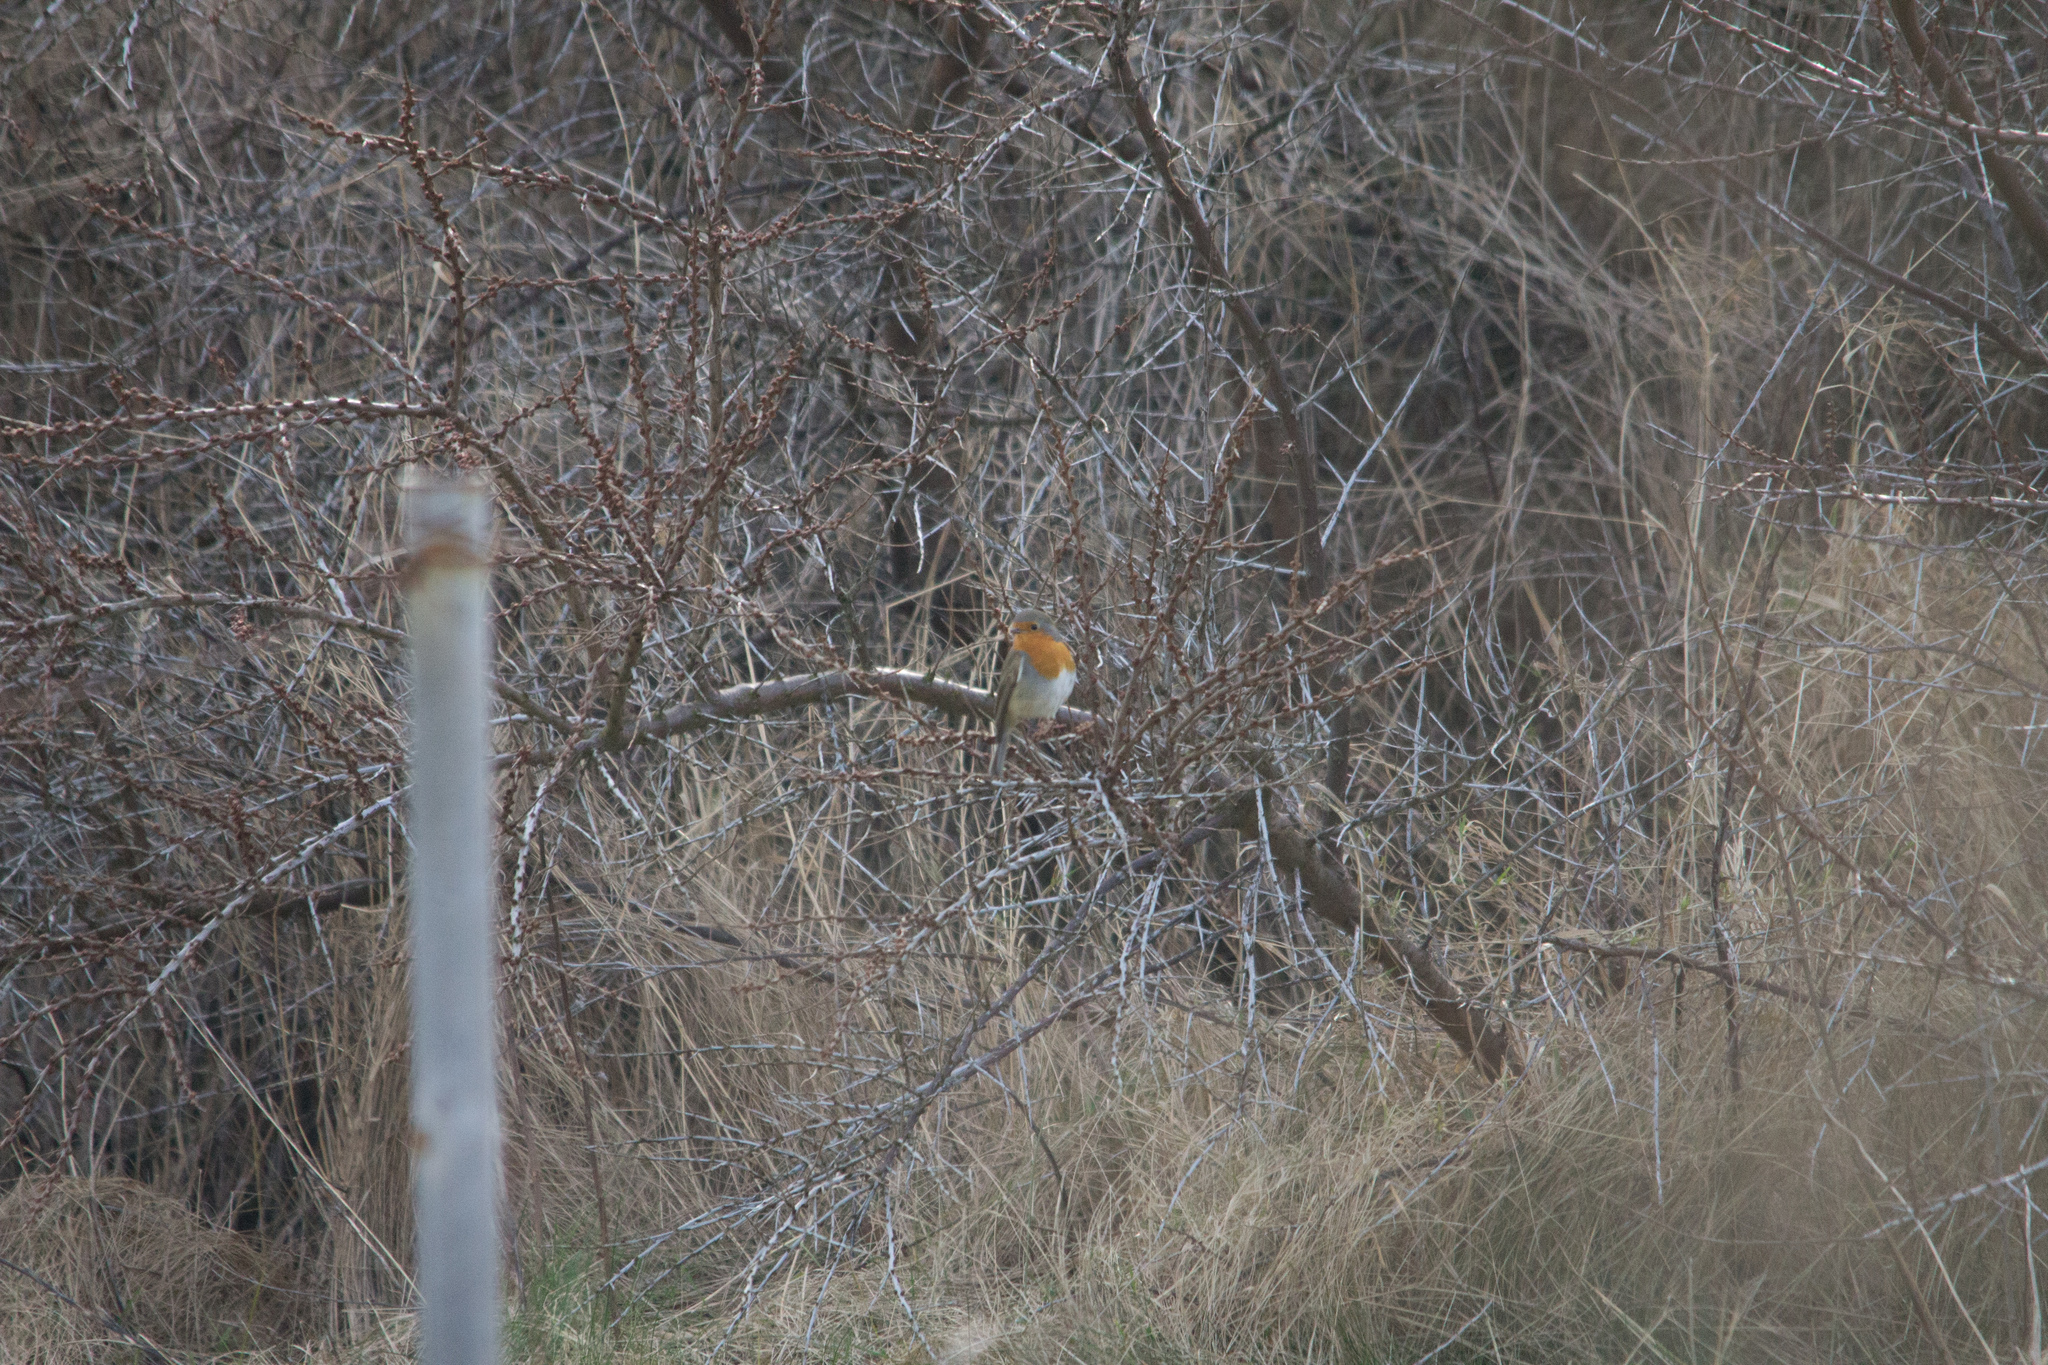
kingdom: Animalia
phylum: Chordata
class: Aves
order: Passeriformes
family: Muscicapidae
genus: Erithacus
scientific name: Erithacus rubecula
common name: European robin
